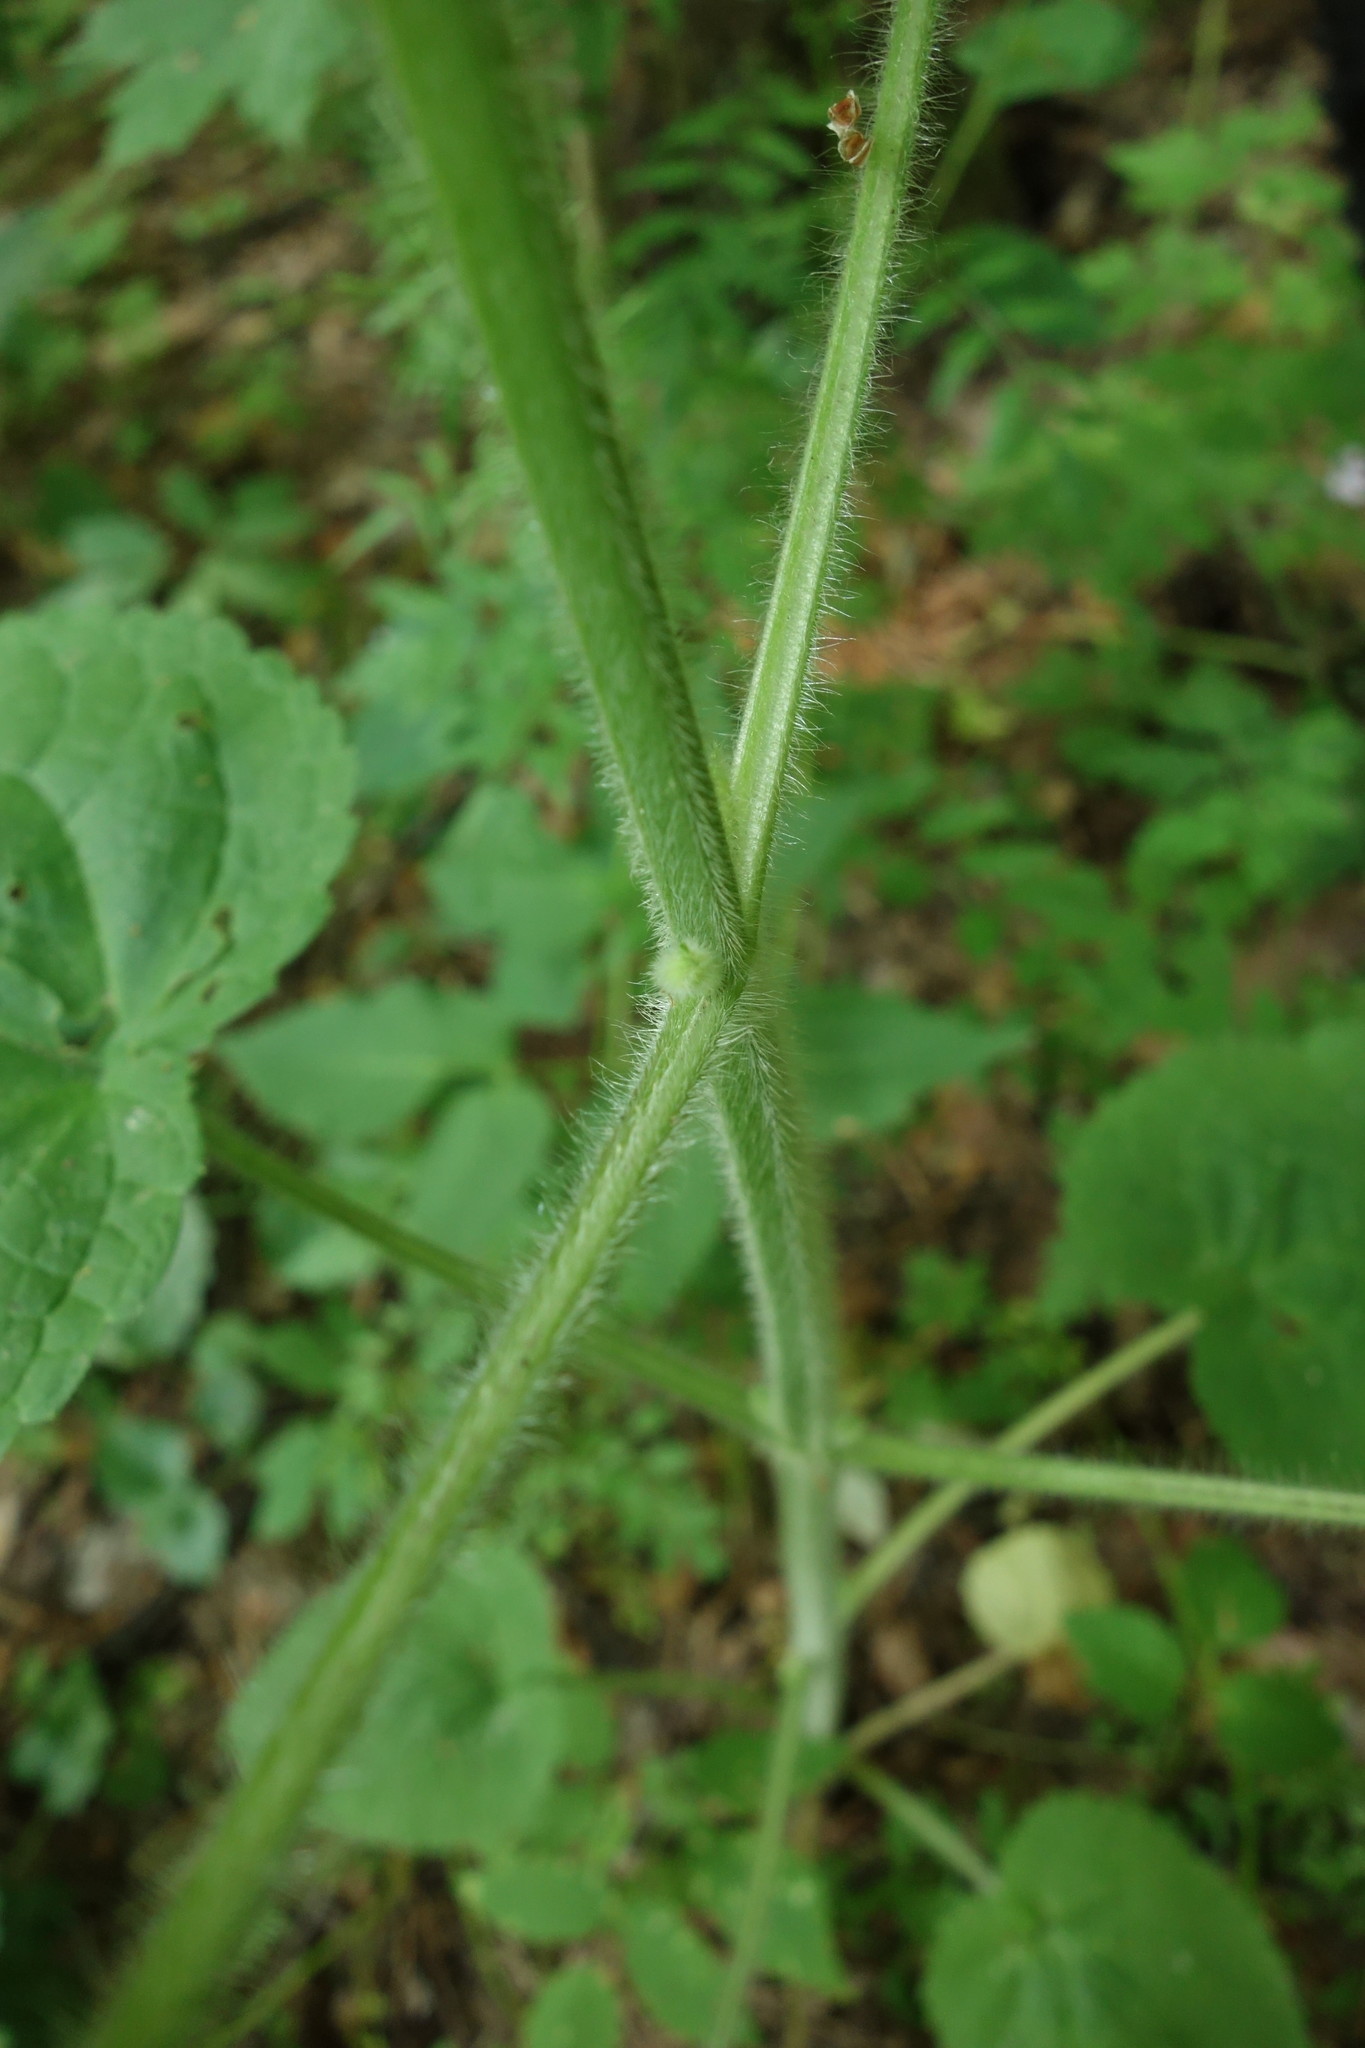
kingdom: Plantae
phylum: Tracheophyta
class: Magnoliopsida
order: Lamiales
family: Lamiaceae
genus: Stachys
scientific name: Stachys sylvatica
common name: Hedge woundwort
